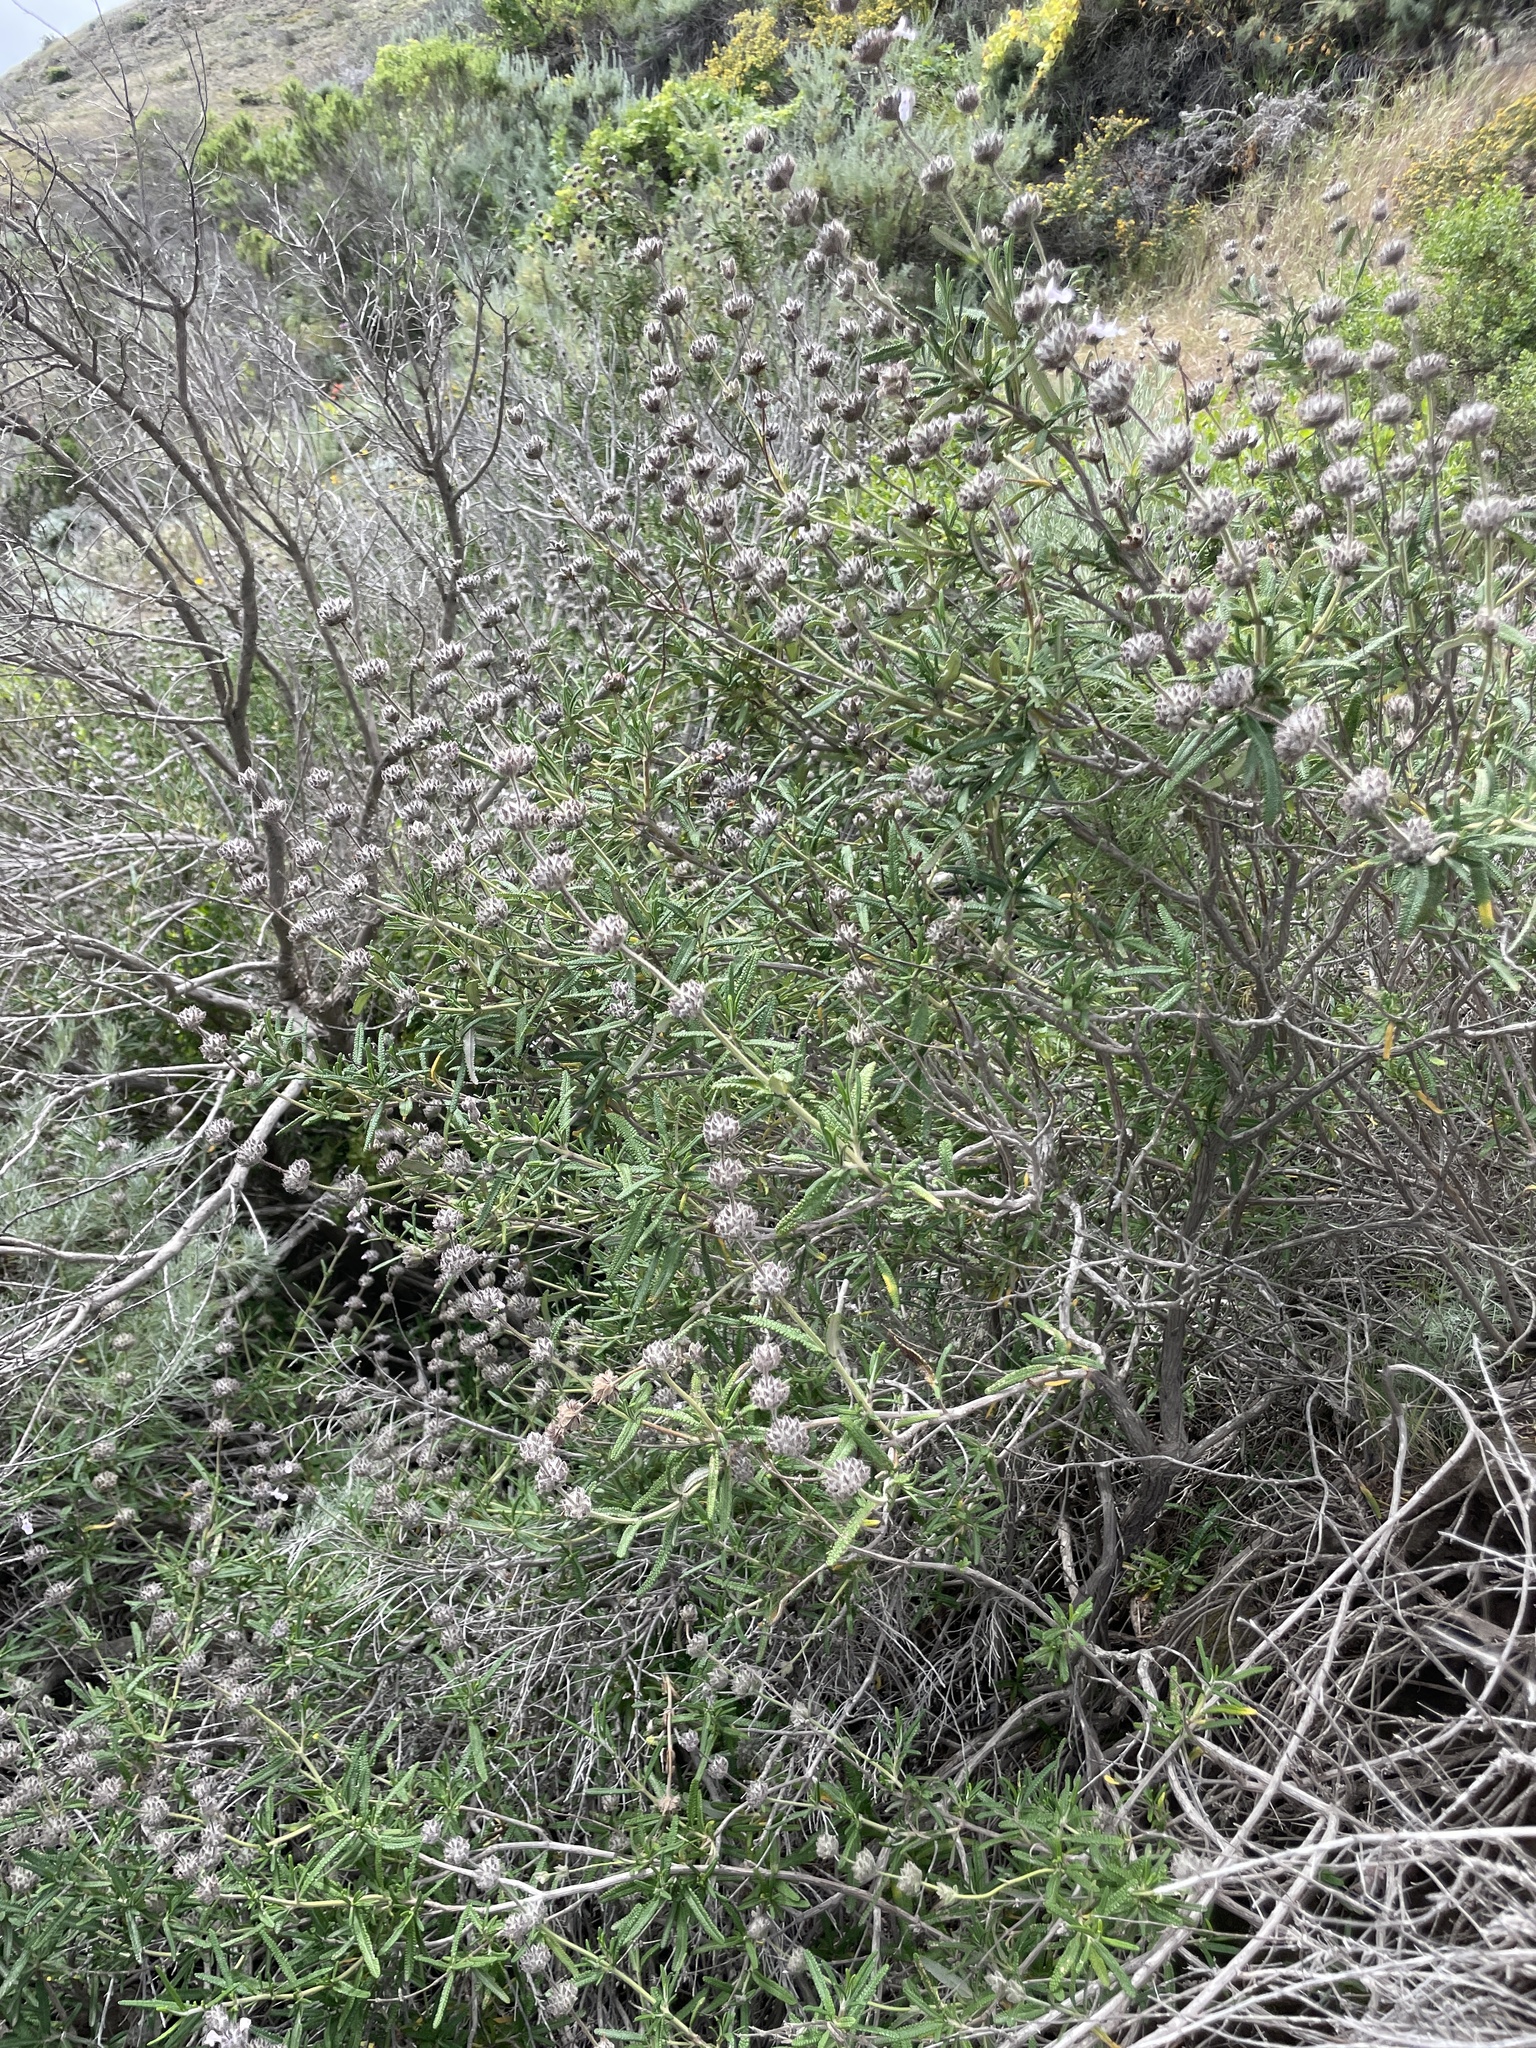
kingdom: Plantae
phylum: Tracheophyta
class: Magnoliopsida
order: Lamiales
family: Lamiaceae
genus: Salvia
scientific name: Salvia brandegeei
